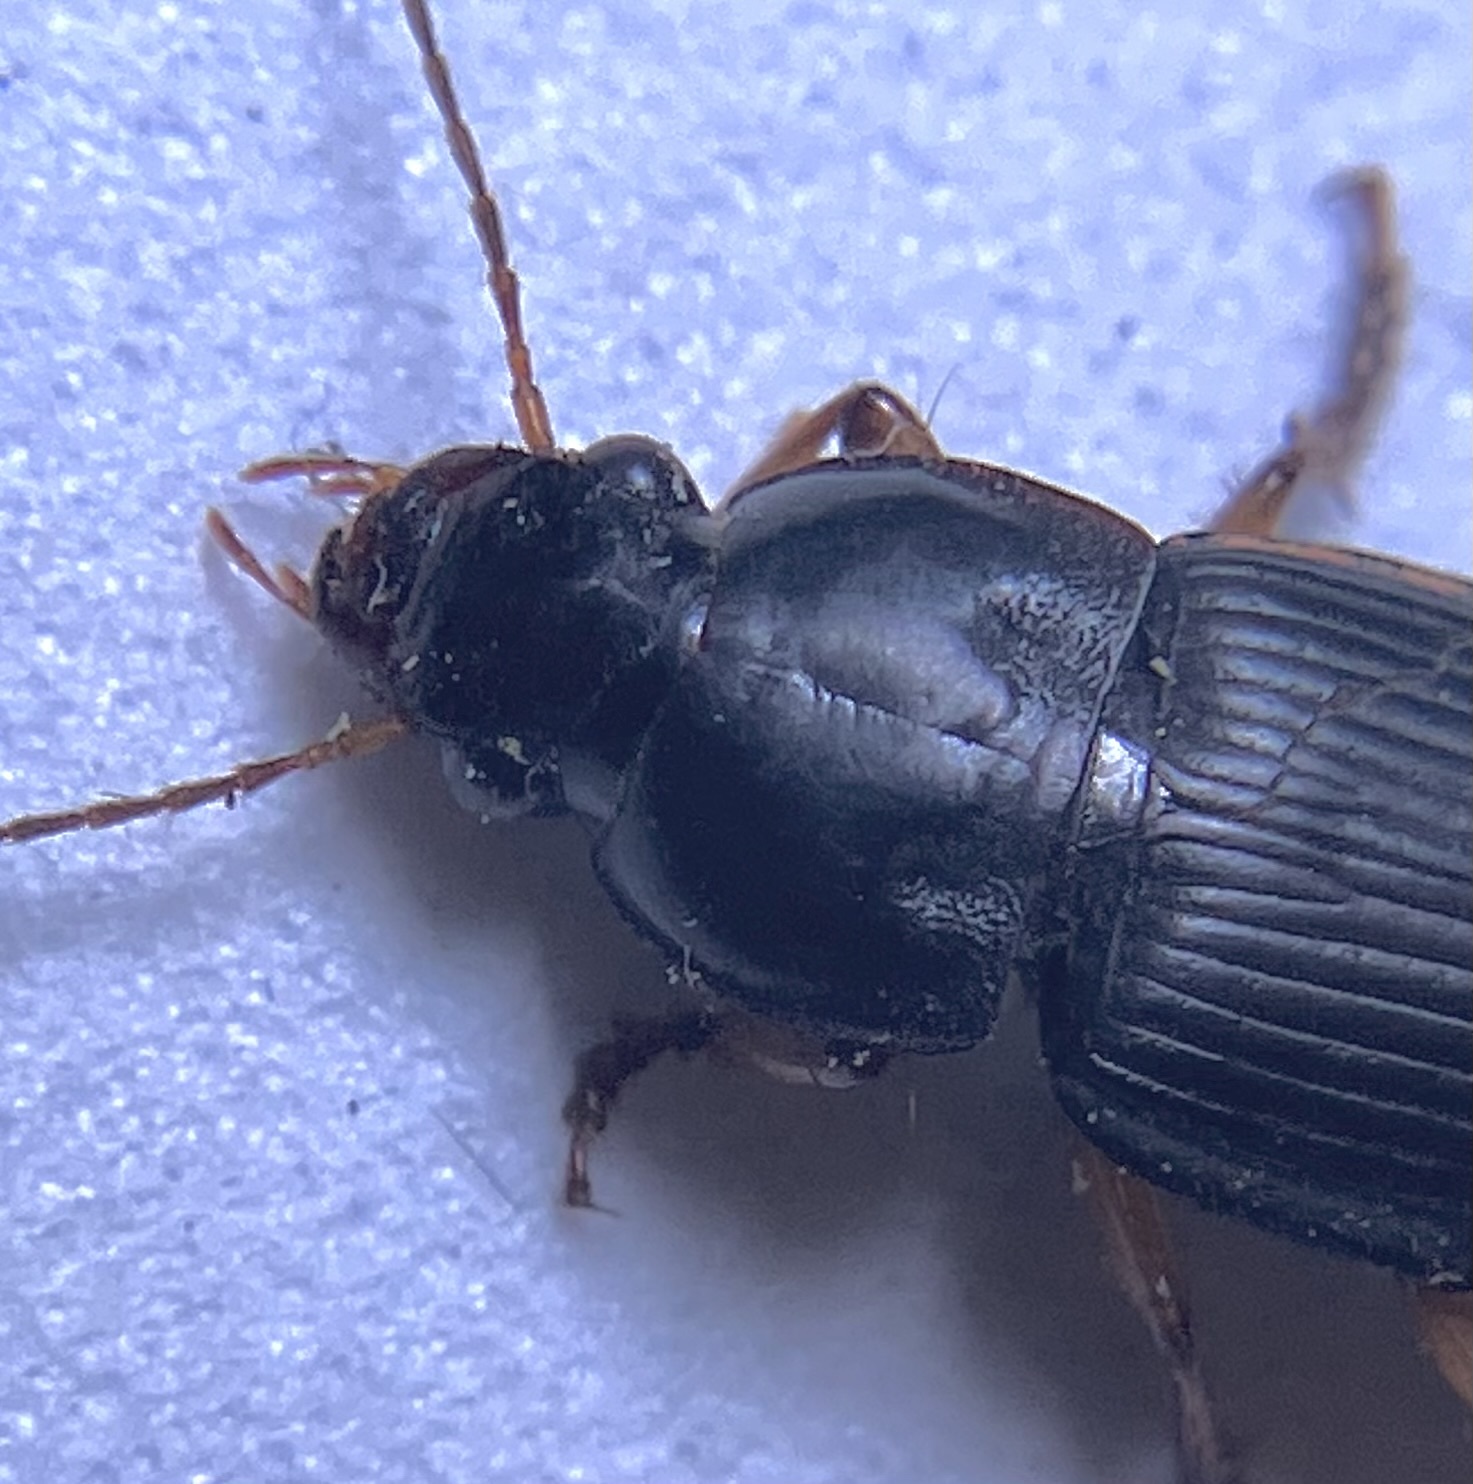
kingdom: Animalia
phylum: Arthropoda
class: Insecta
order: Coleoptera
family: Carabidae
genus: Harpalus
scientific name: Harpalus pensylvanicus
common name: Pennsylvania dingy ground beetle
